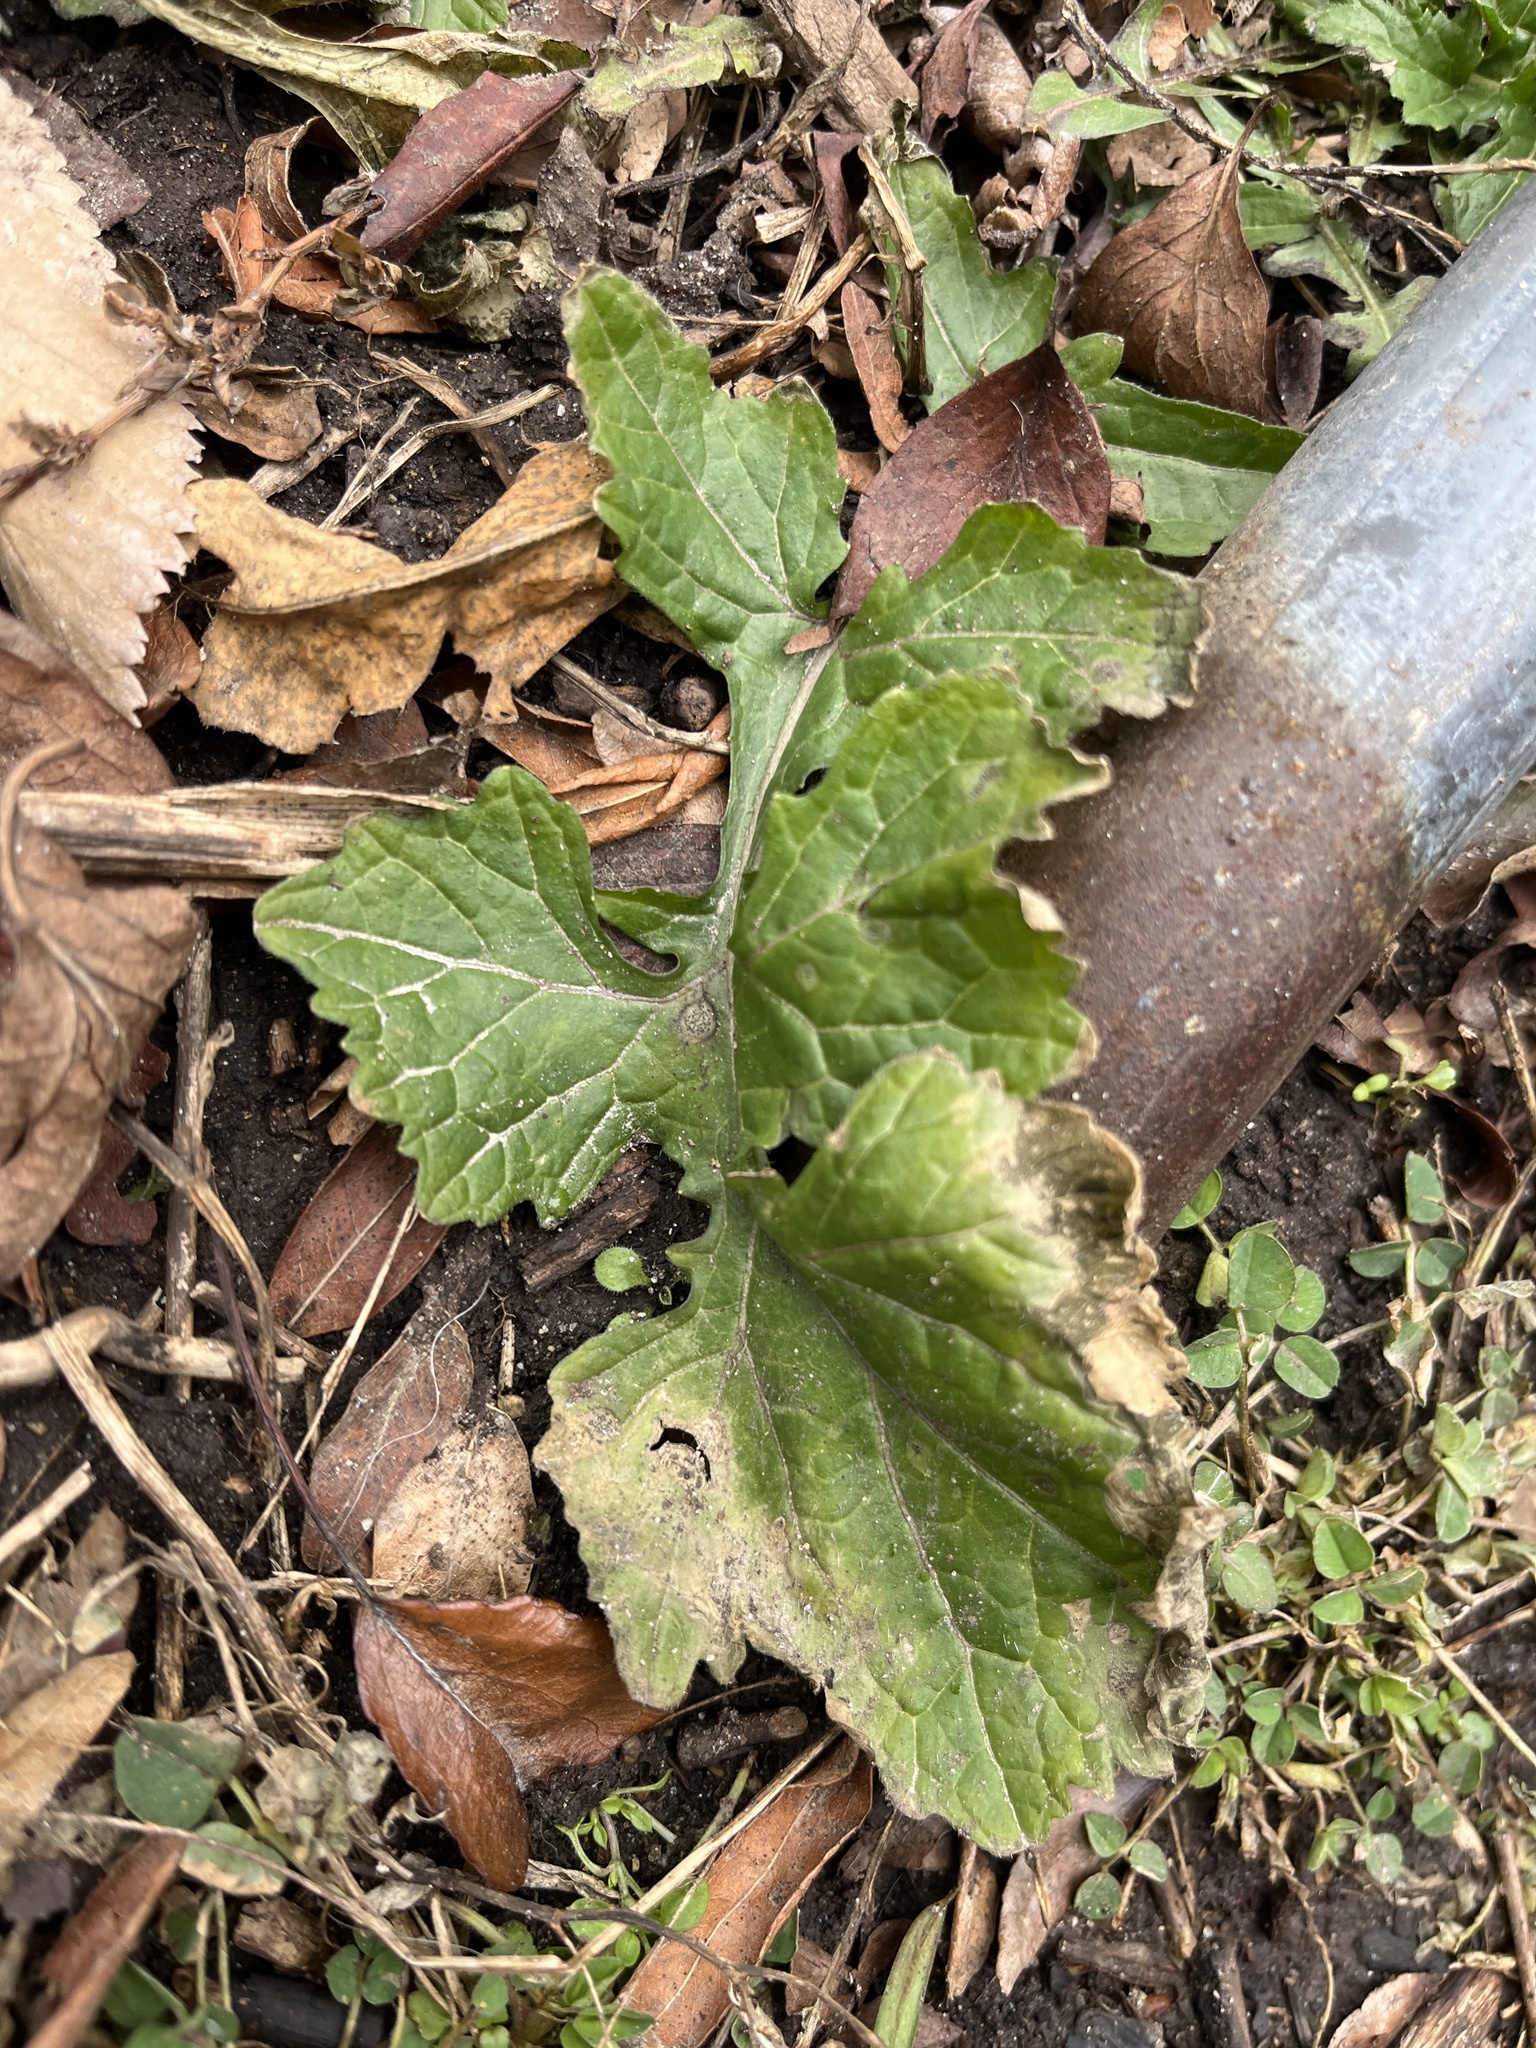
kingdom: Plantae
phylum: Tracheophyta
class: Magnoliopsida
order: Asterales
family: Asteraceae
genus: Packera
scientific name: Packera glabella
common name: Butterweed
